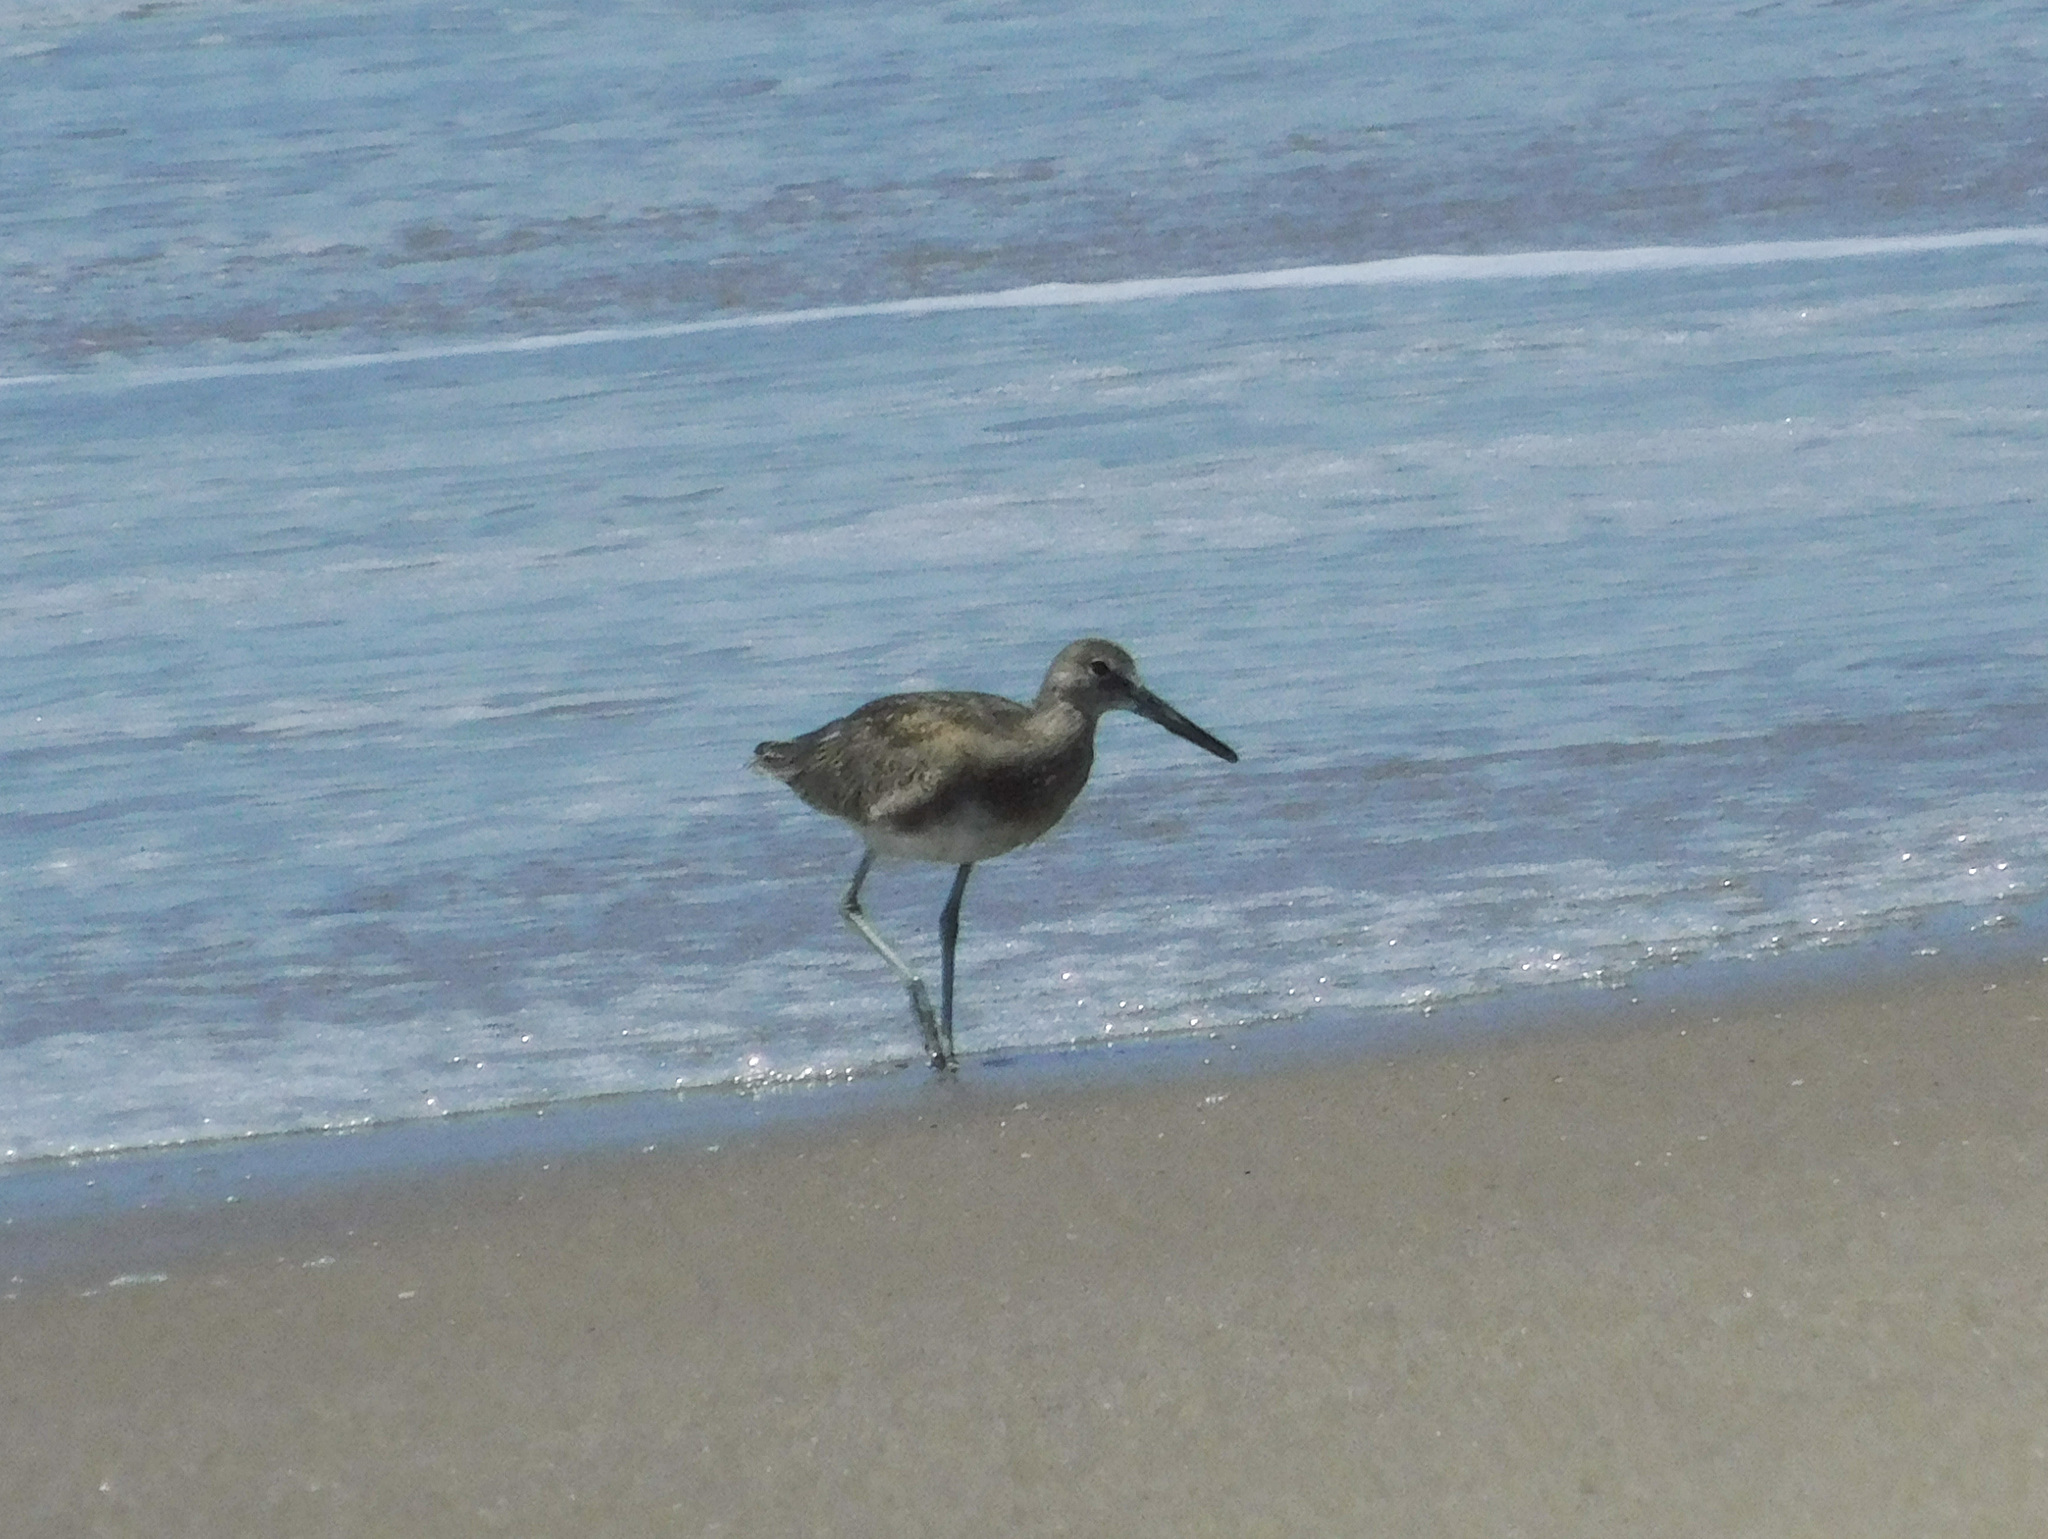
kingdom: Animalia
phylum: Chordata
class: Aves
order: Charadriiformes
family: Scolopacidae
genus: Tringa
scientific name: Tringa semipalmata
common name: Willet
